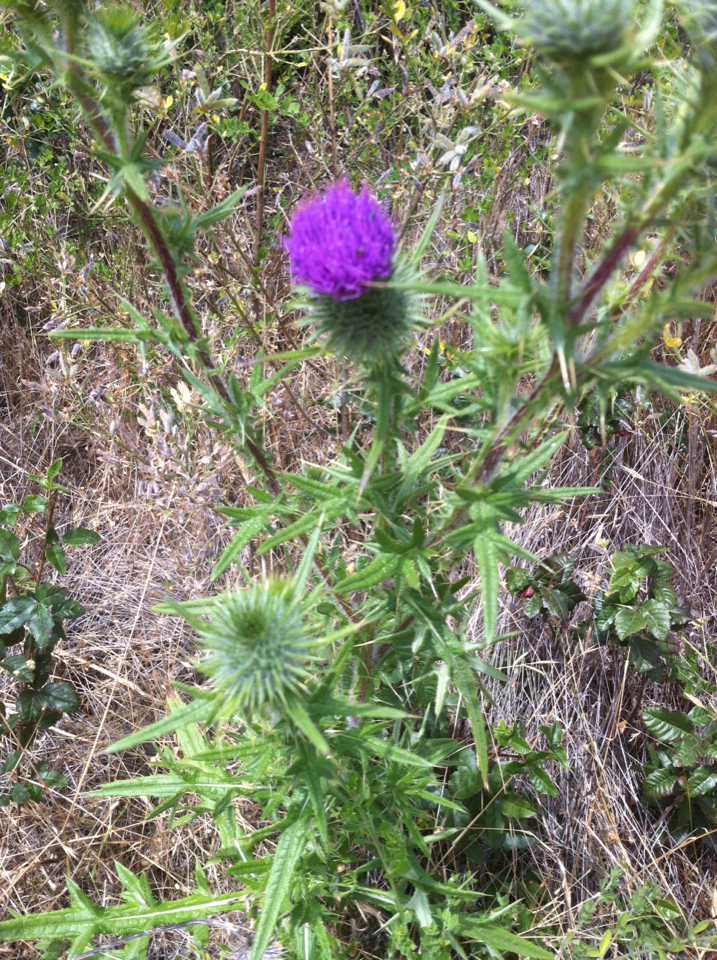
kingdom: Plantae
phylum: Tracheophyta
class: Magnoliopsida
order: Asterales
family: Asteraceae
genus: Cirsium
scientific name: Cirsium vulgare
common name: Bull thistle
